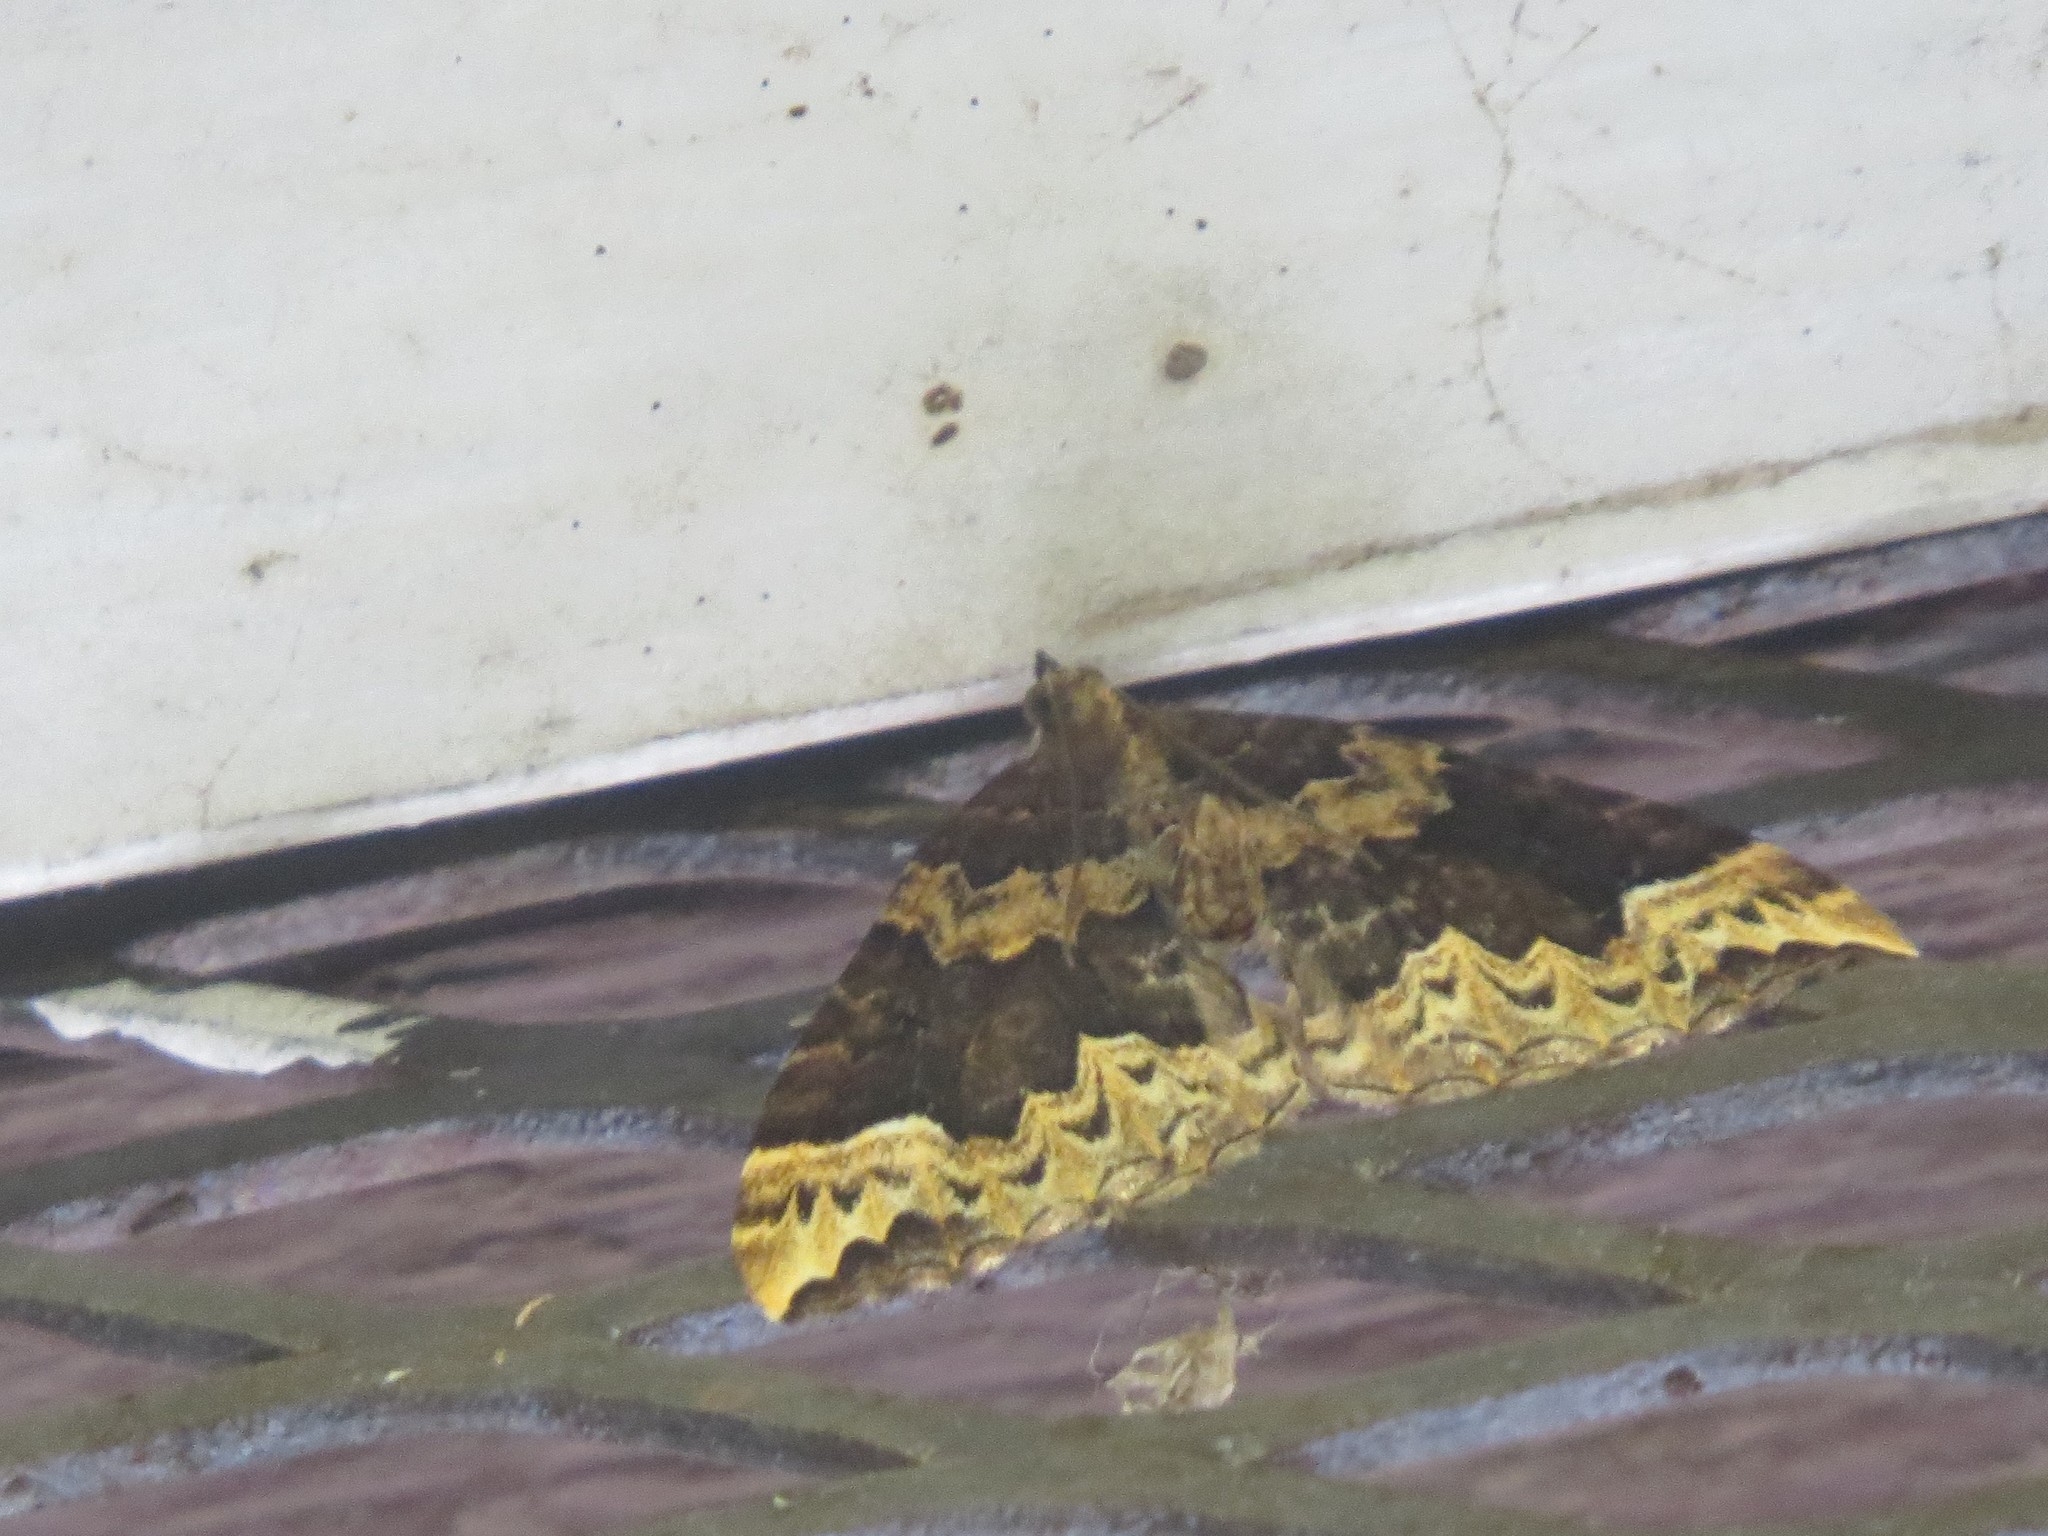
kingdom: Animalia
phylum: Arthropoda
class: Insecta
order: Lepidoptera
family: Geometridae
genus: Eulithis
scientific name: Eulithis xylina
